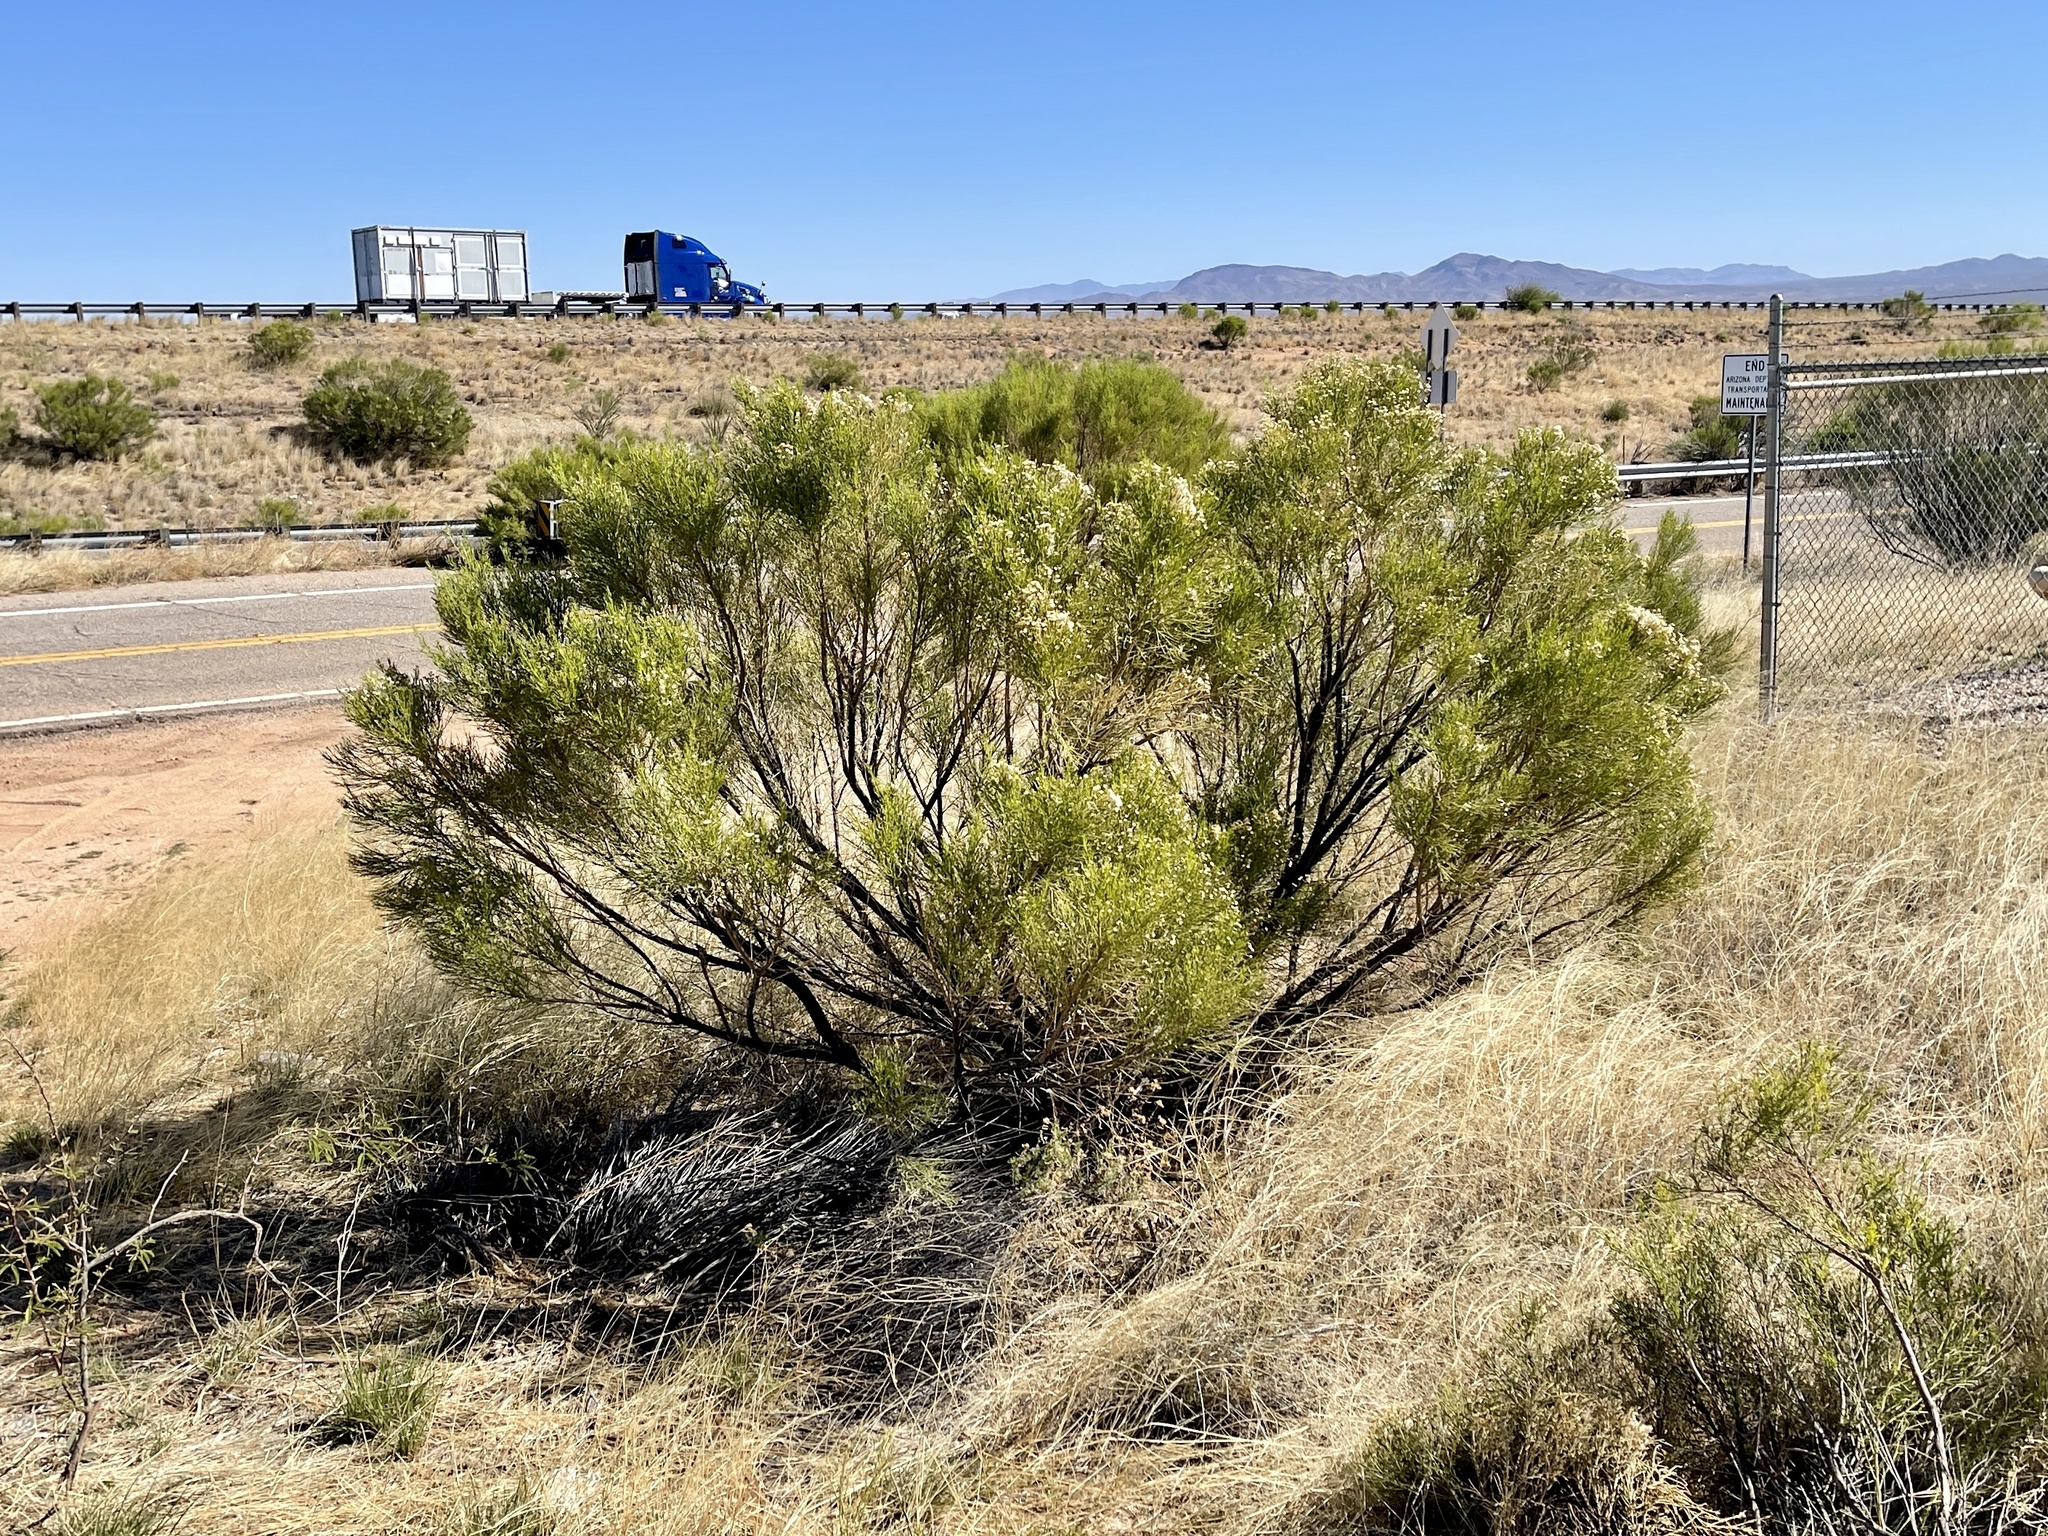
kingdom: Plantae
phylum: Tracheophyta
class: Magnoliopsida
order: Asterales
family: Asteraceae
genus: Baccharis
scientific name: Baccharis sarothroides
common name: Desert-broom
